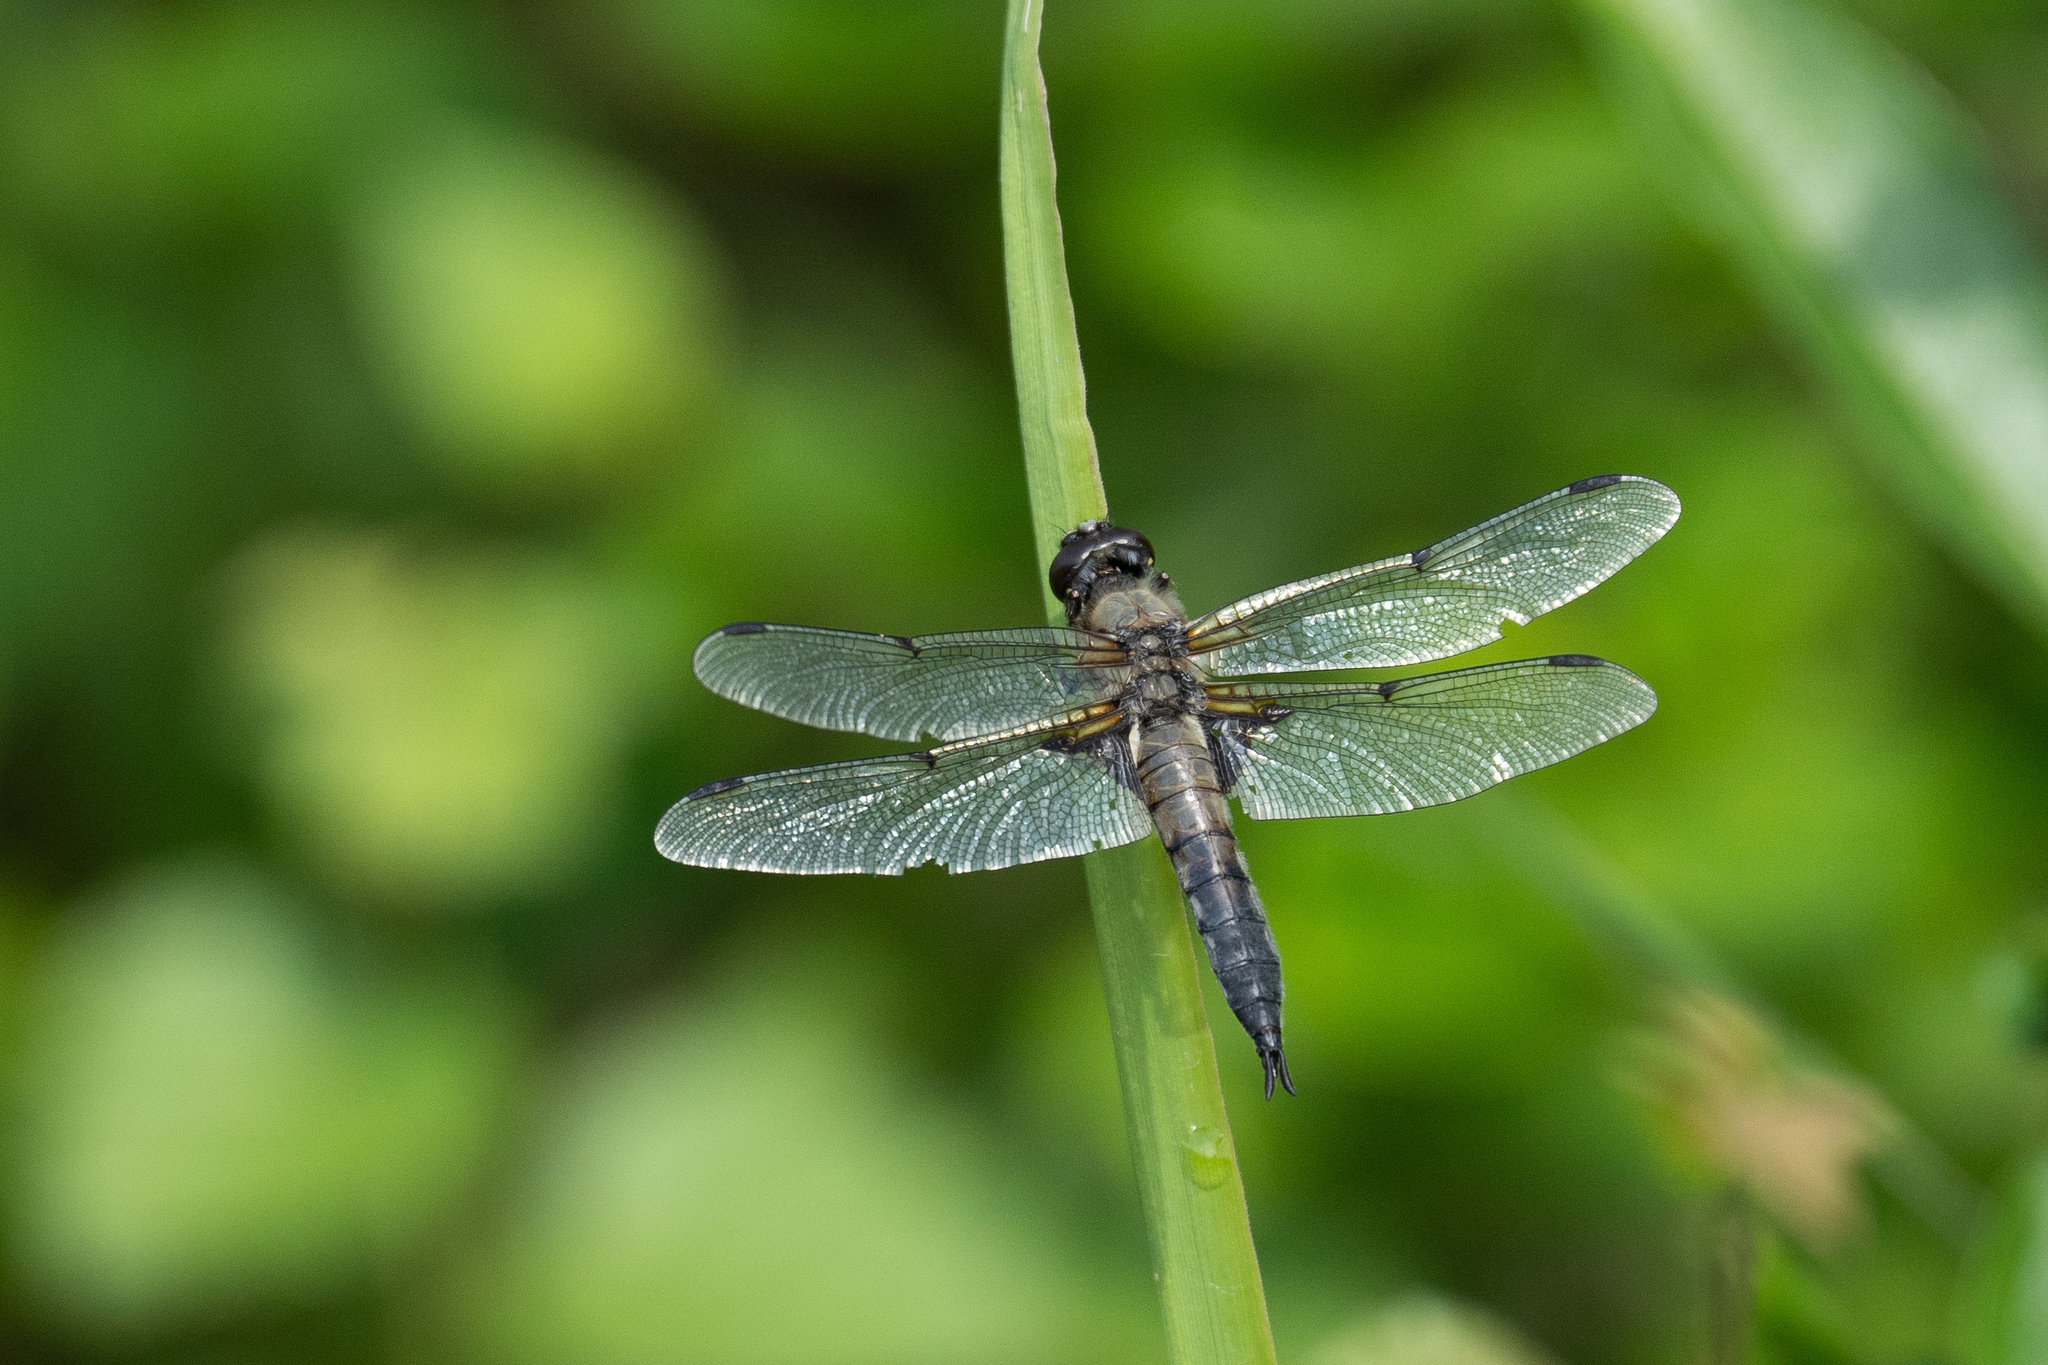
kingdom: Animalia
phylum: Arthropoda
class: Insecta
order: Odonata
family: Libellulidae
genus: Libellula
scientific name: Libellula quadrimaculata
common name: Four-spotted chaser
